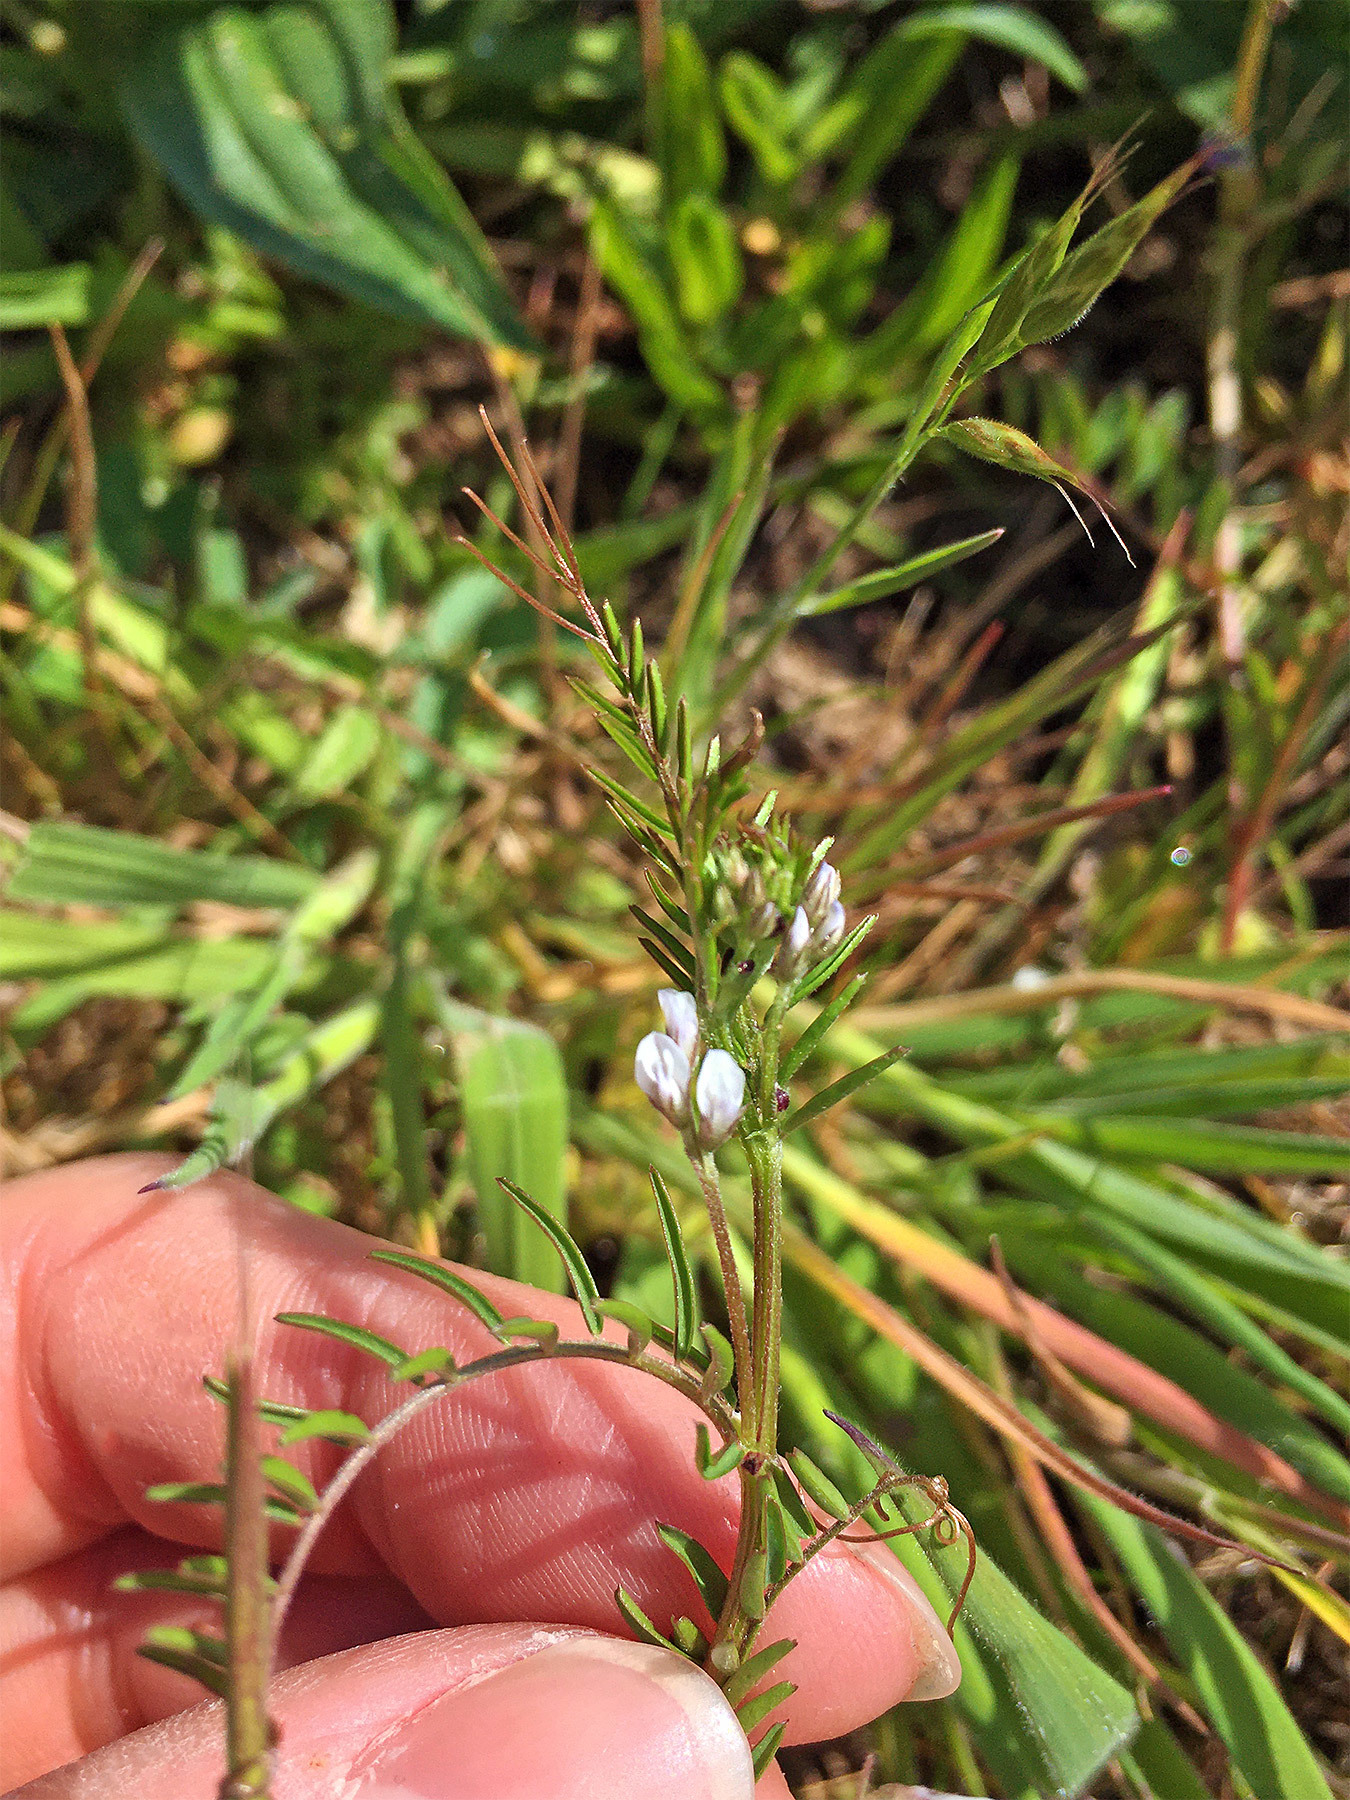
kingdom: Plantae
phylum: Tracheophyta
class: Magnoliopsida
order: Fabales
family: Fabaceae
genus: Vicia
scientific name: Vicia hirsuta
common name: Tiny vetch
